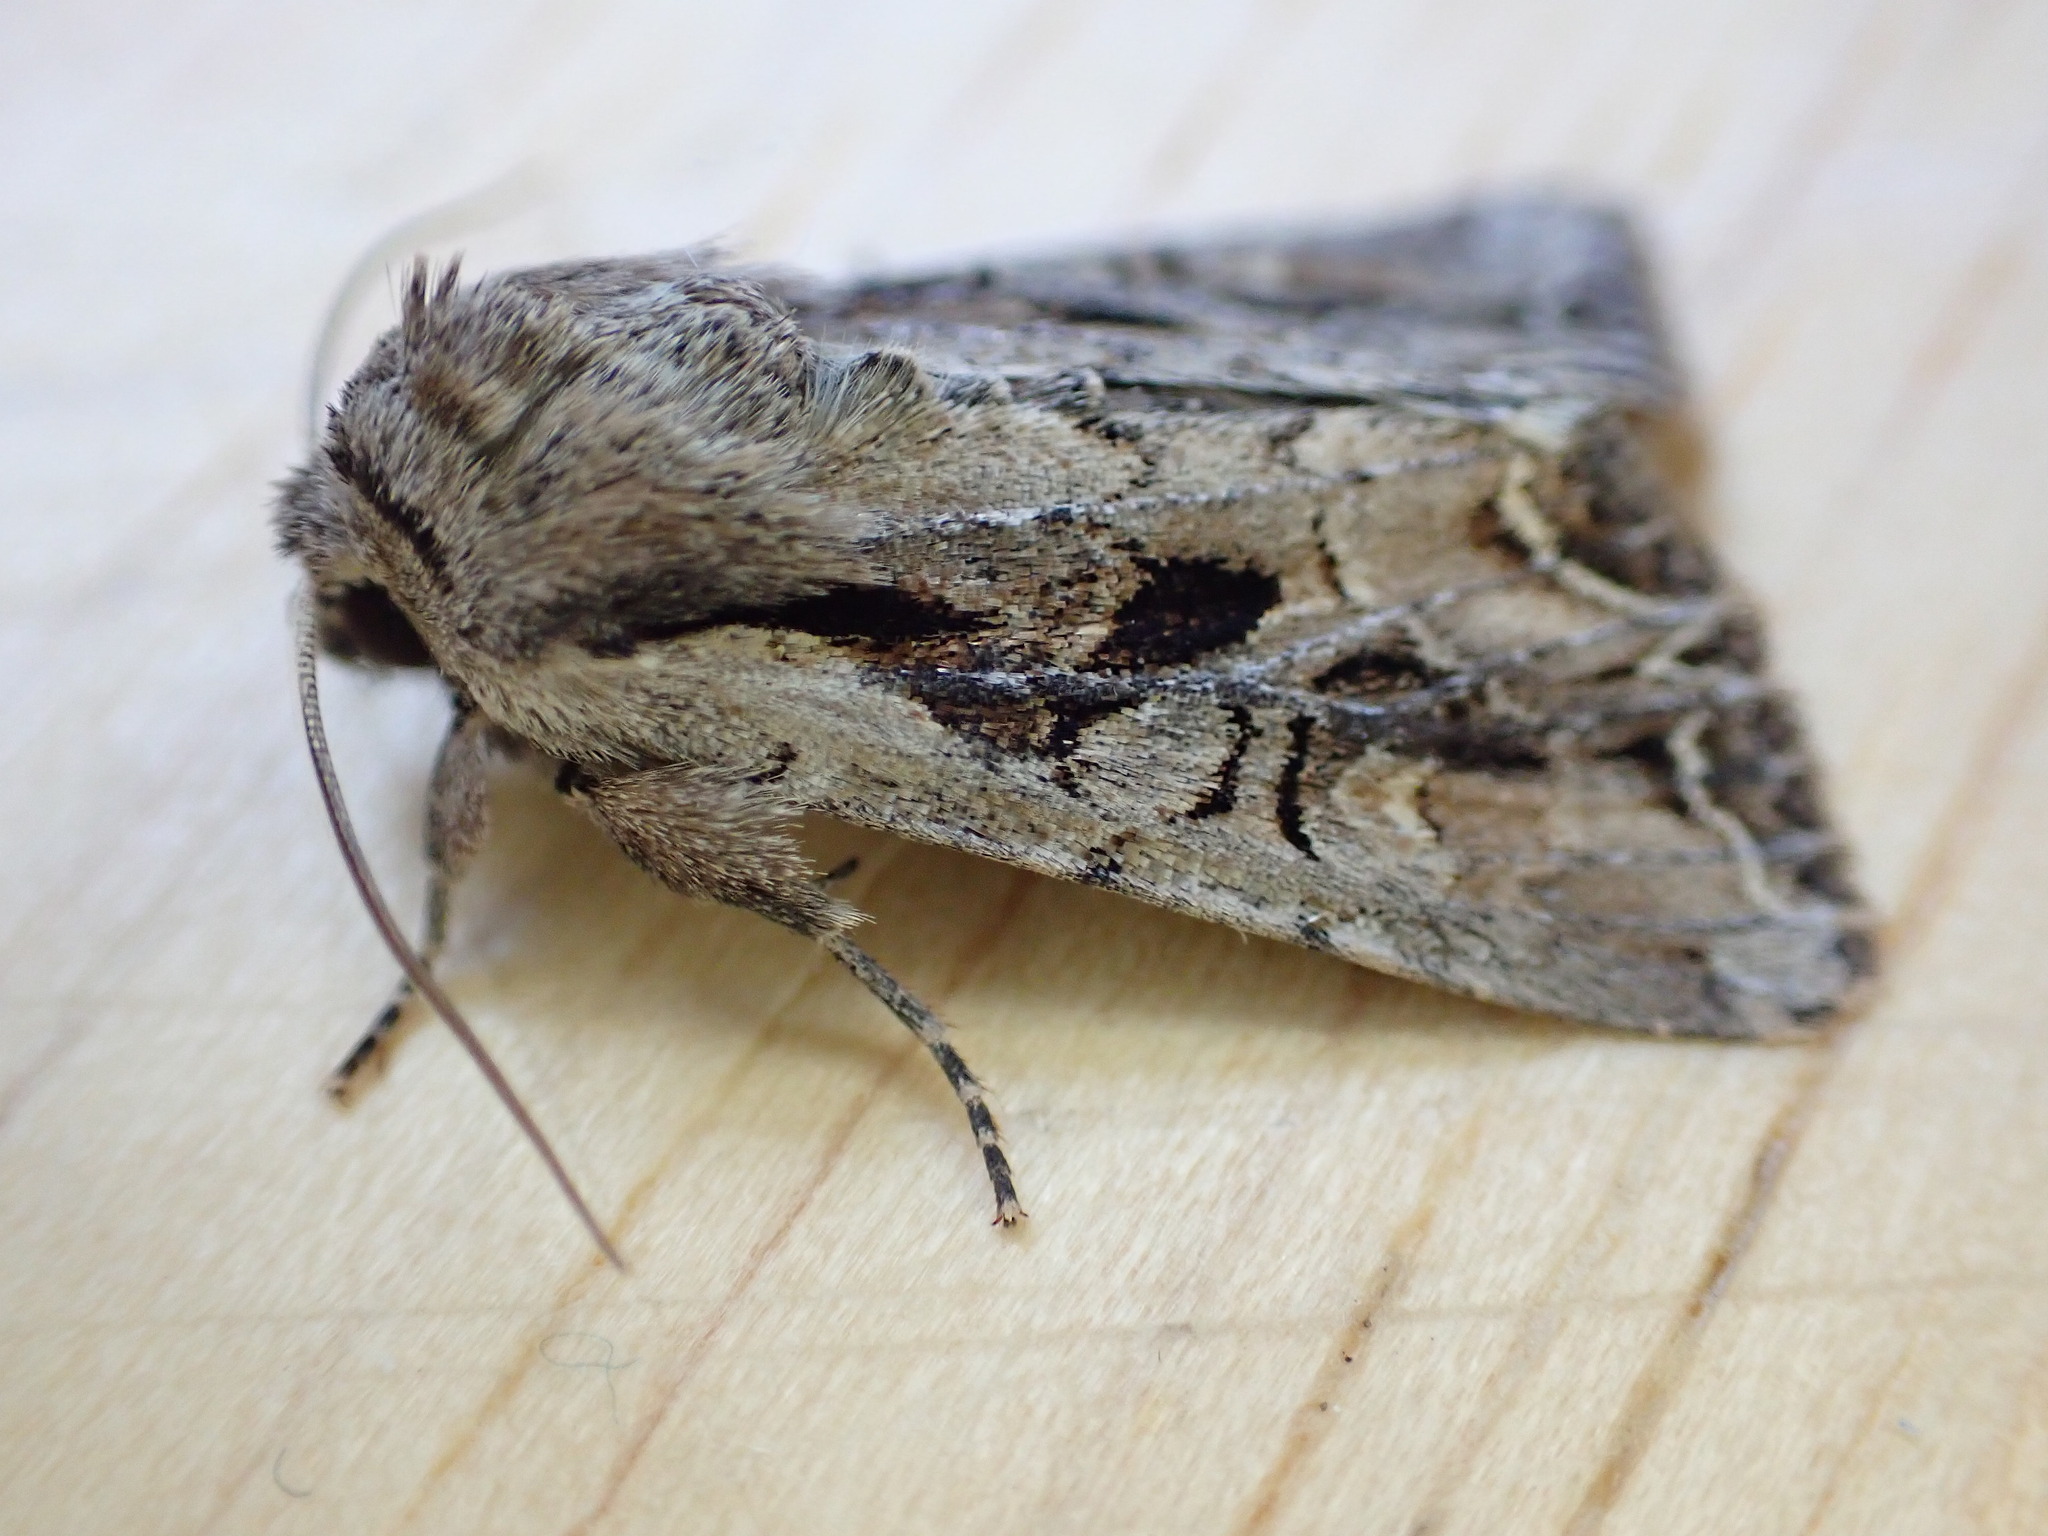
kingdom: Animalia
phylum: Arthropoda
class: Insecta
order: Lepidoptera
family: Noctuidae
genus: Lacanobia
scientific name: Lacanobia suasa
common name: Dog's tooth
